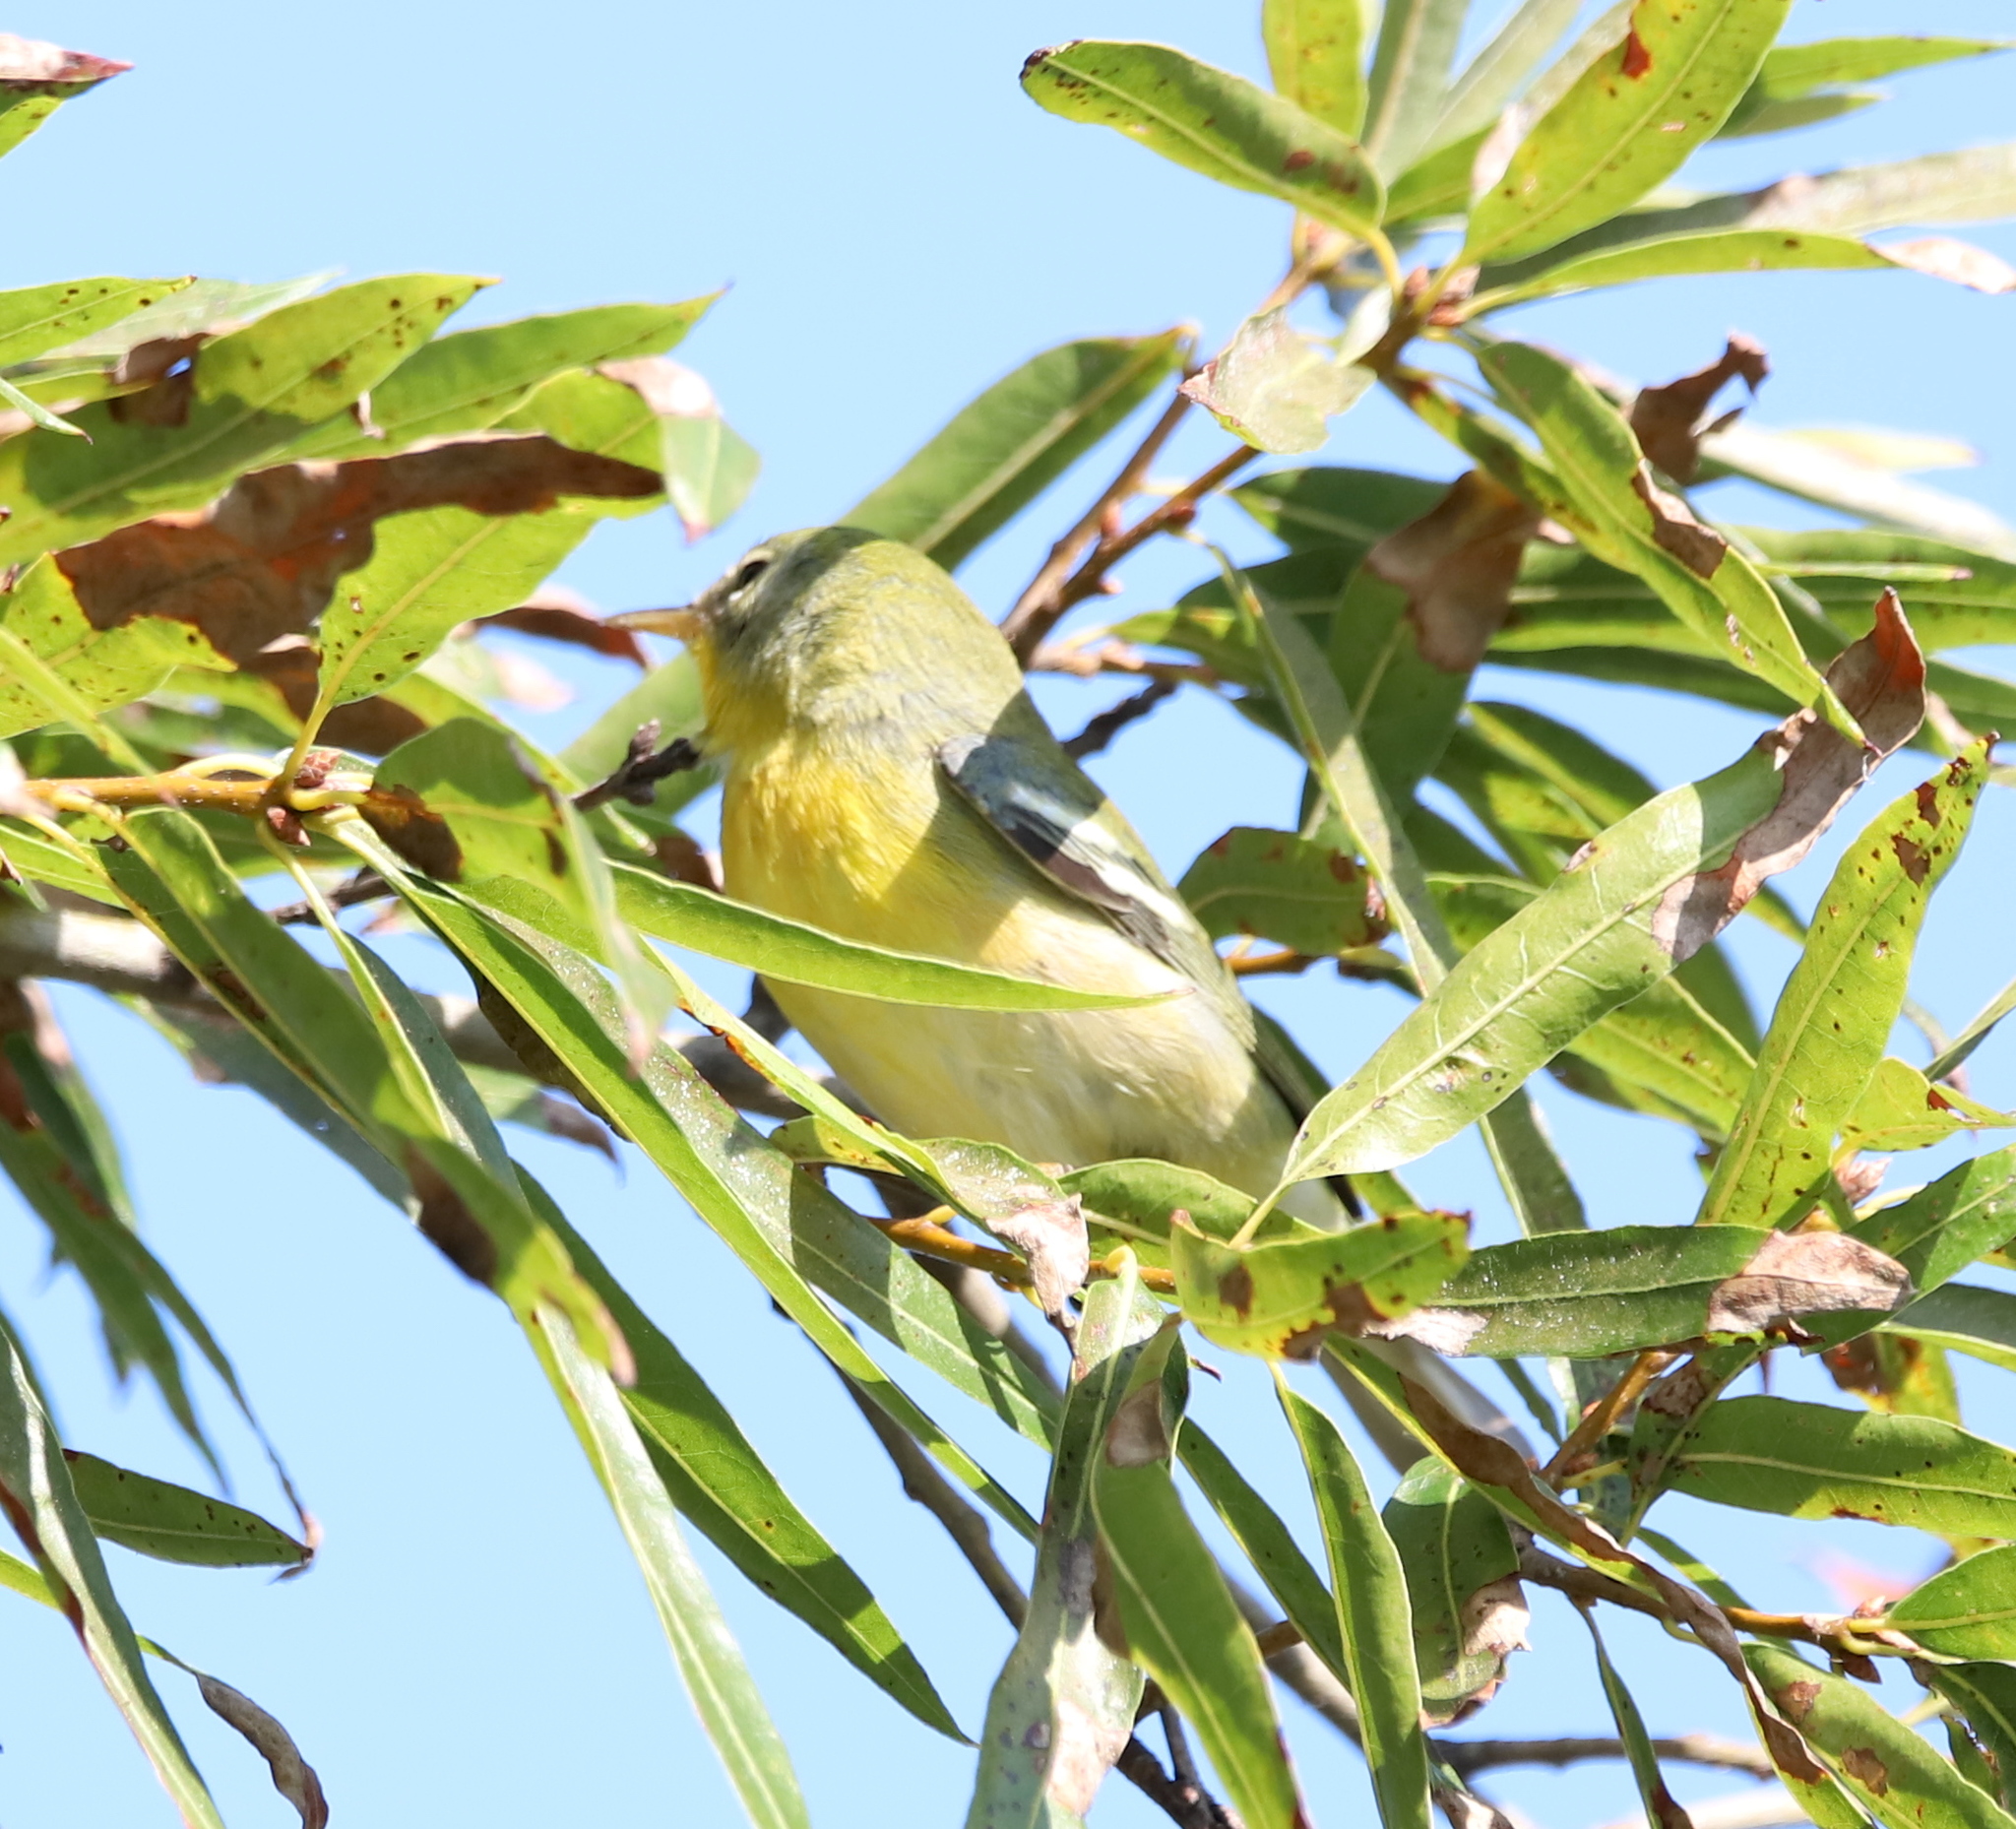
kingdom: Animalia
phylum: Chordata
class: Aves
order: Passeriformes
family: Parulidae
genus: Setophaga
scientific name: Setophaga americana
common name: Northern parula
